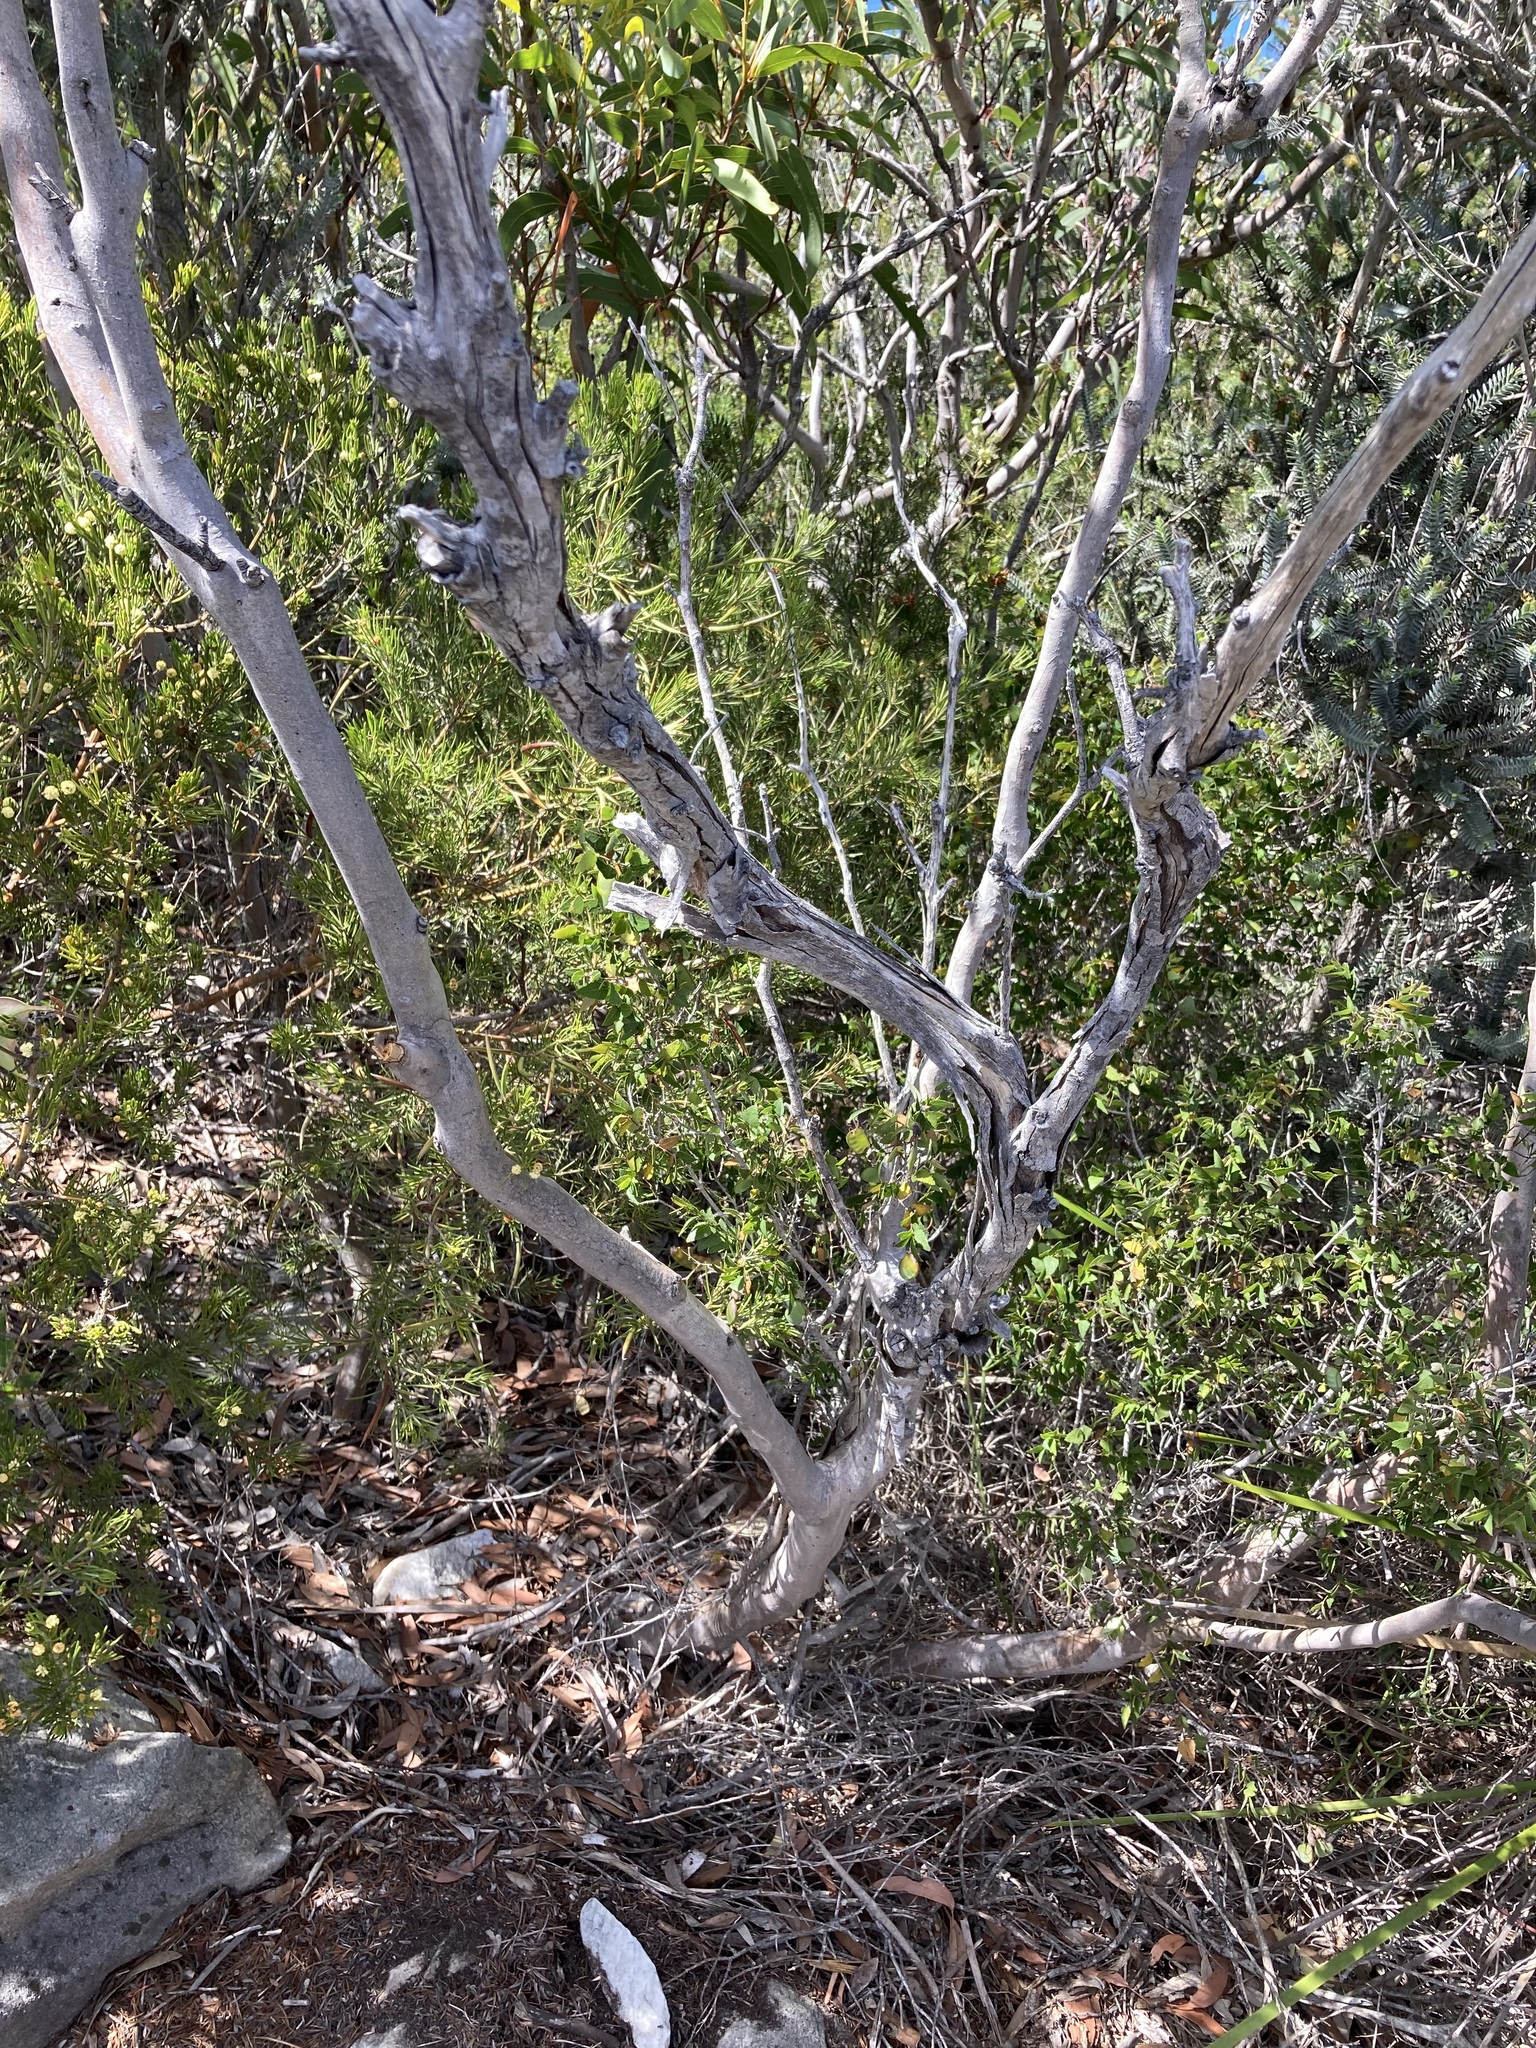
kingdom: Plantae
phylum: Tracheophyta
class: Magnoliopsida
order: Myrtales
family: Myrtaceae
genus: Eucalyptus
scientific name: Eucalyptus coronata
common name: Crowned mallee
